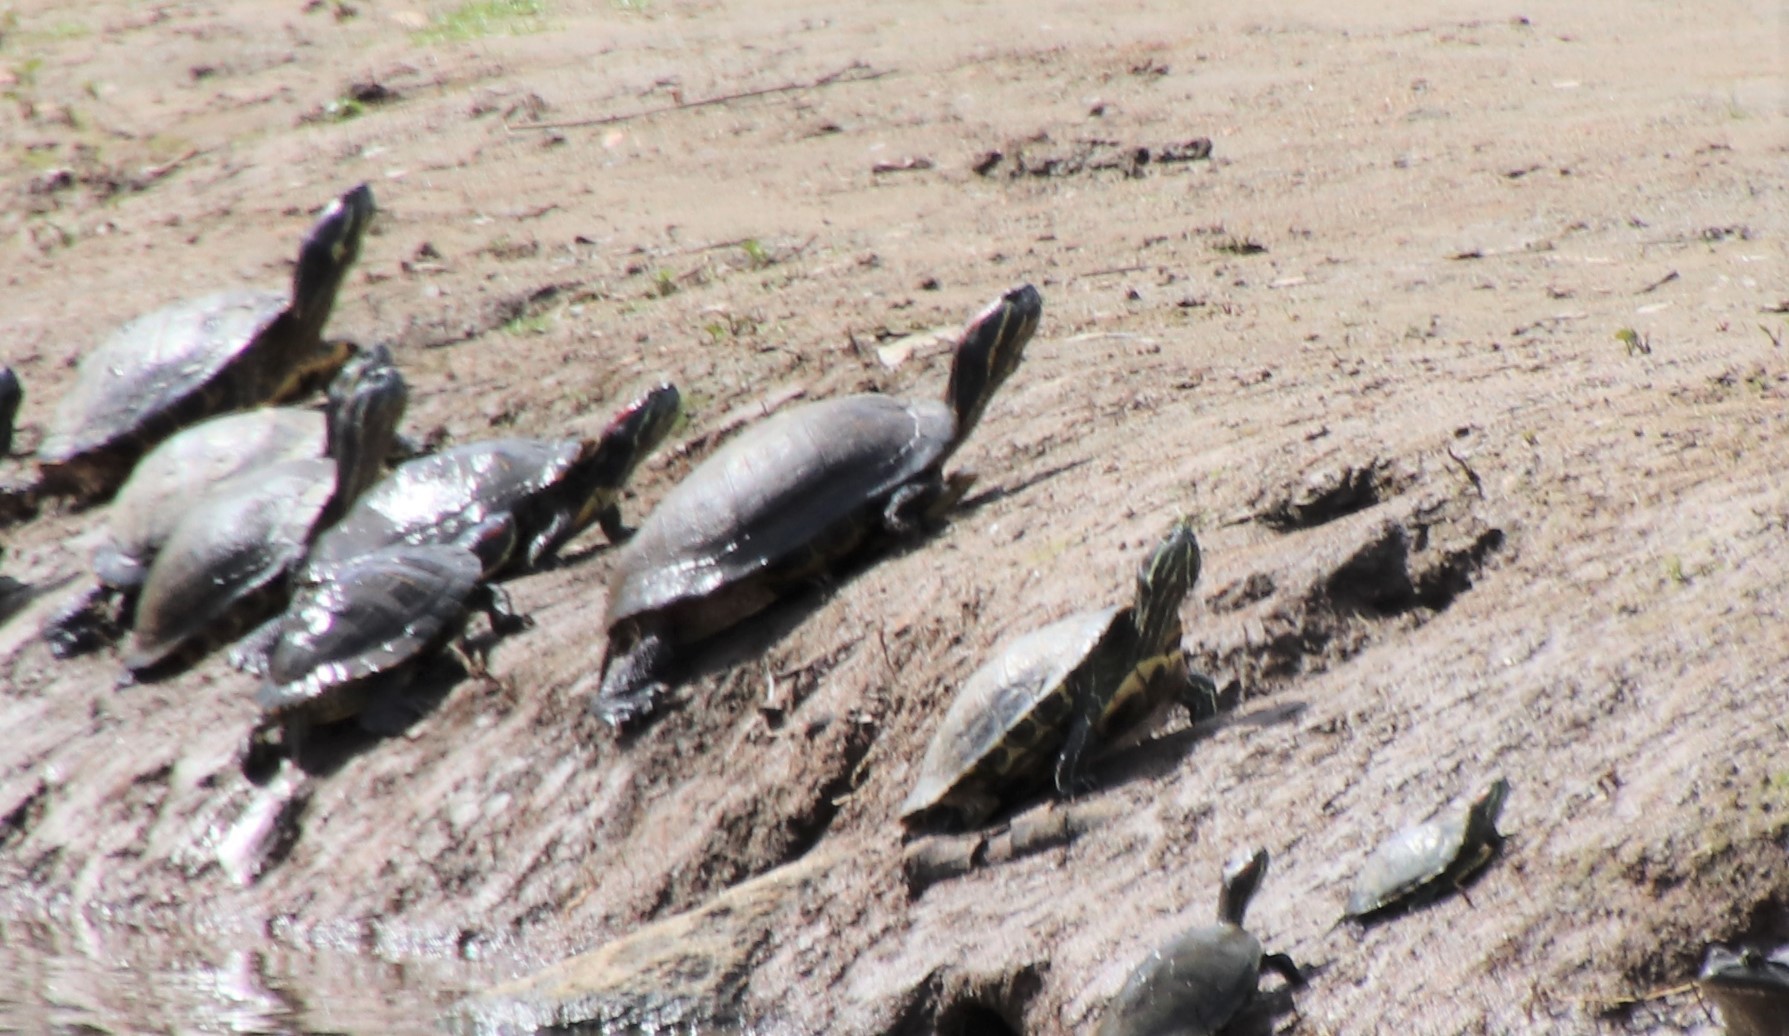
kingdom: Animalia
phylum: Chordata
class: Testudines
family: Emydidae
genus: Trachemys
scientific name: Trachemys scripta
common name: Slider
